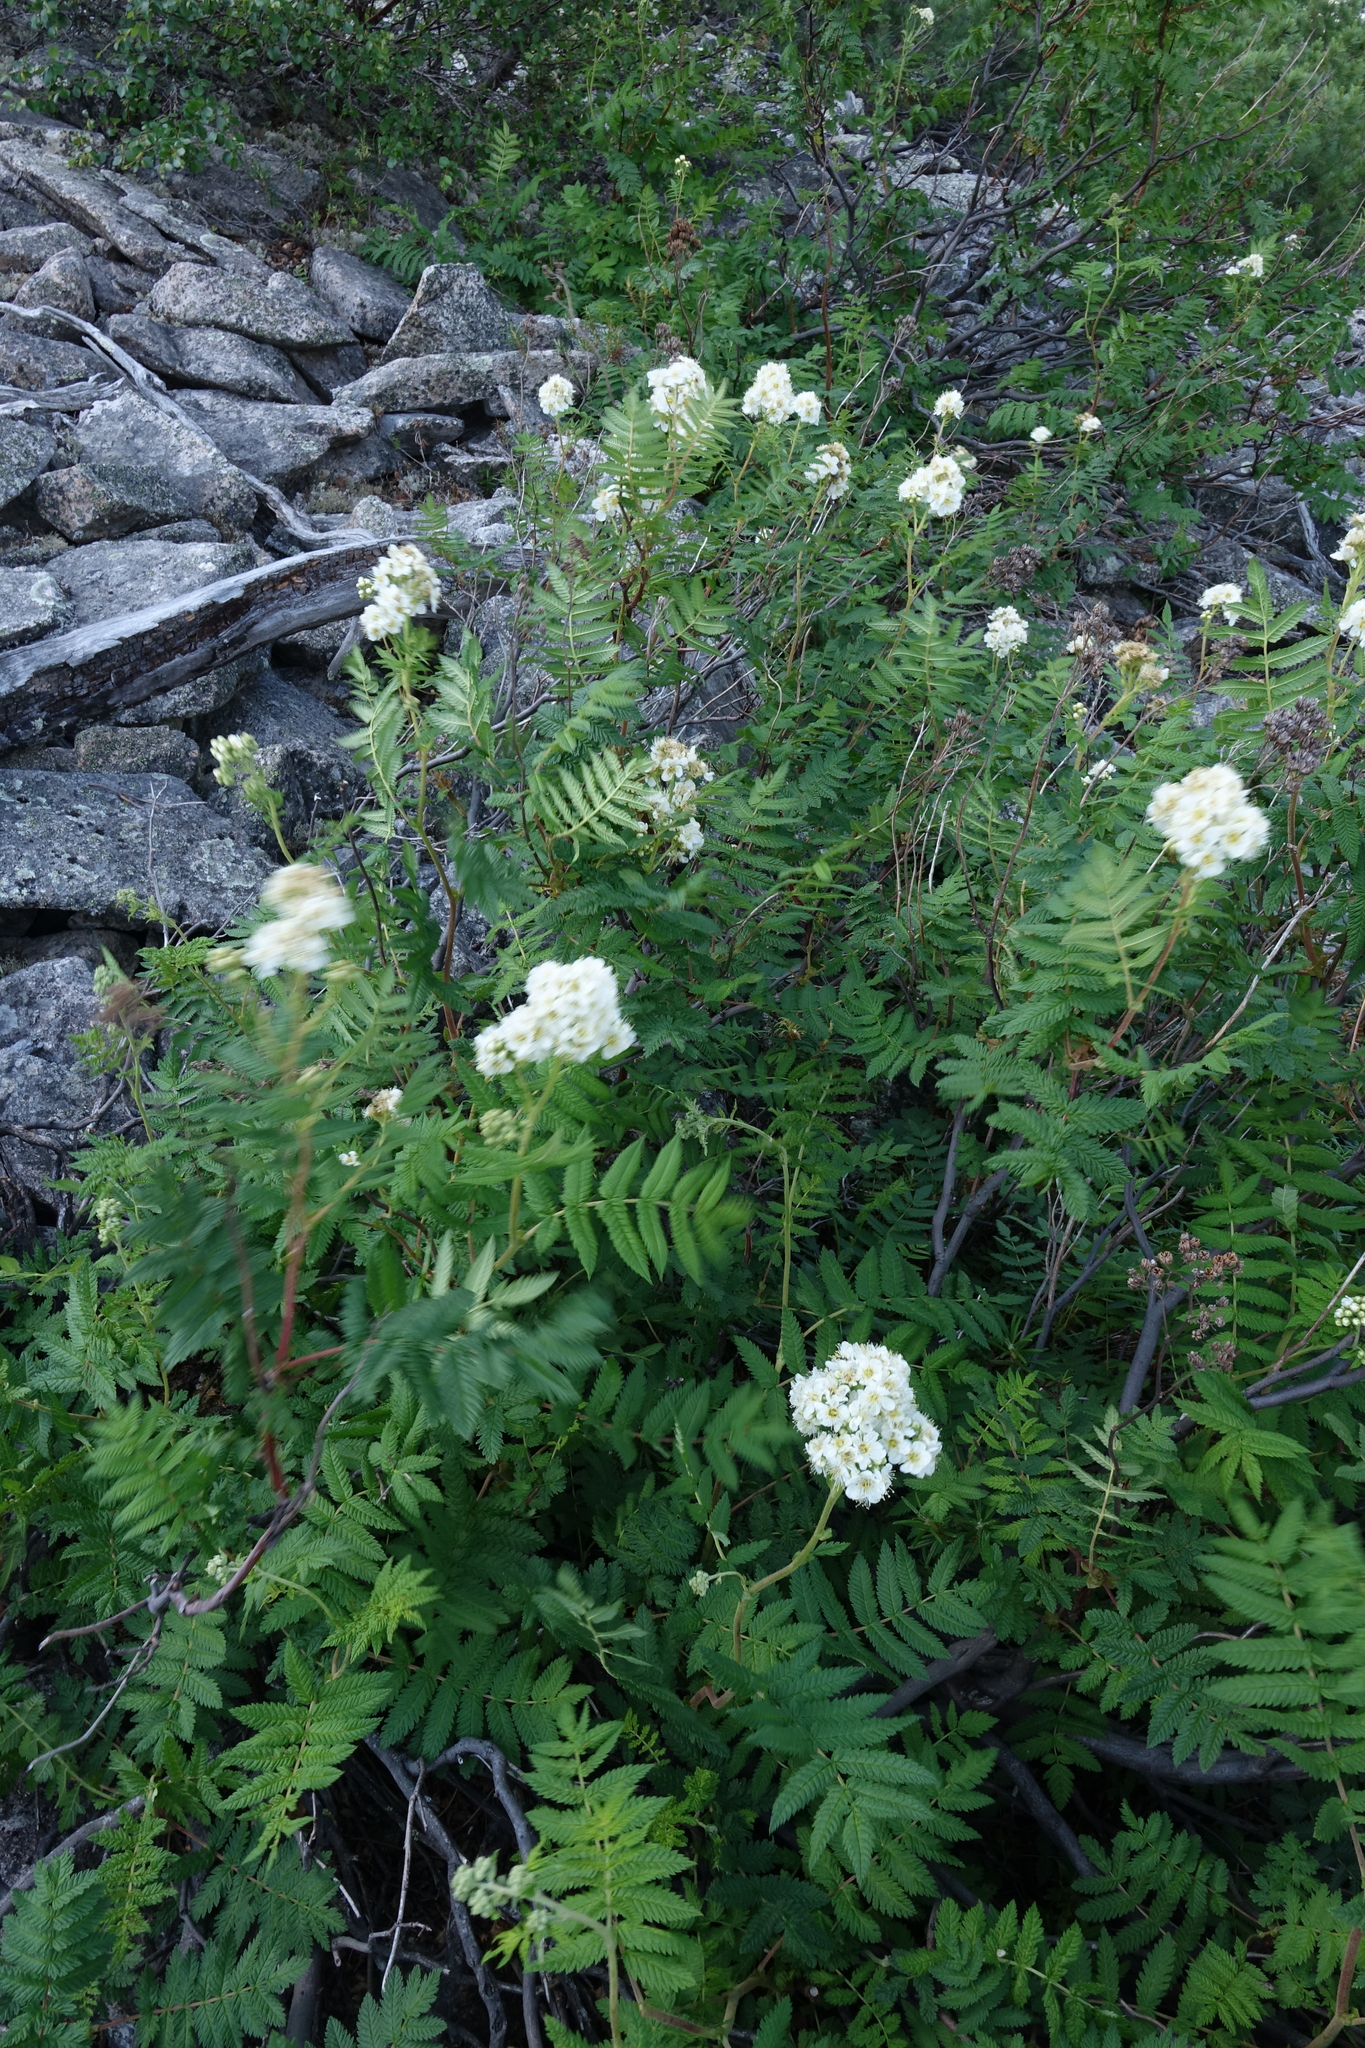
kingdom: Plantae
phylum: Tracheophyta
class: Magnoliopsida
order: Rosales
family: Rosaceae
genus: Sorbaria
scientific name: Sorbaria pallasii
